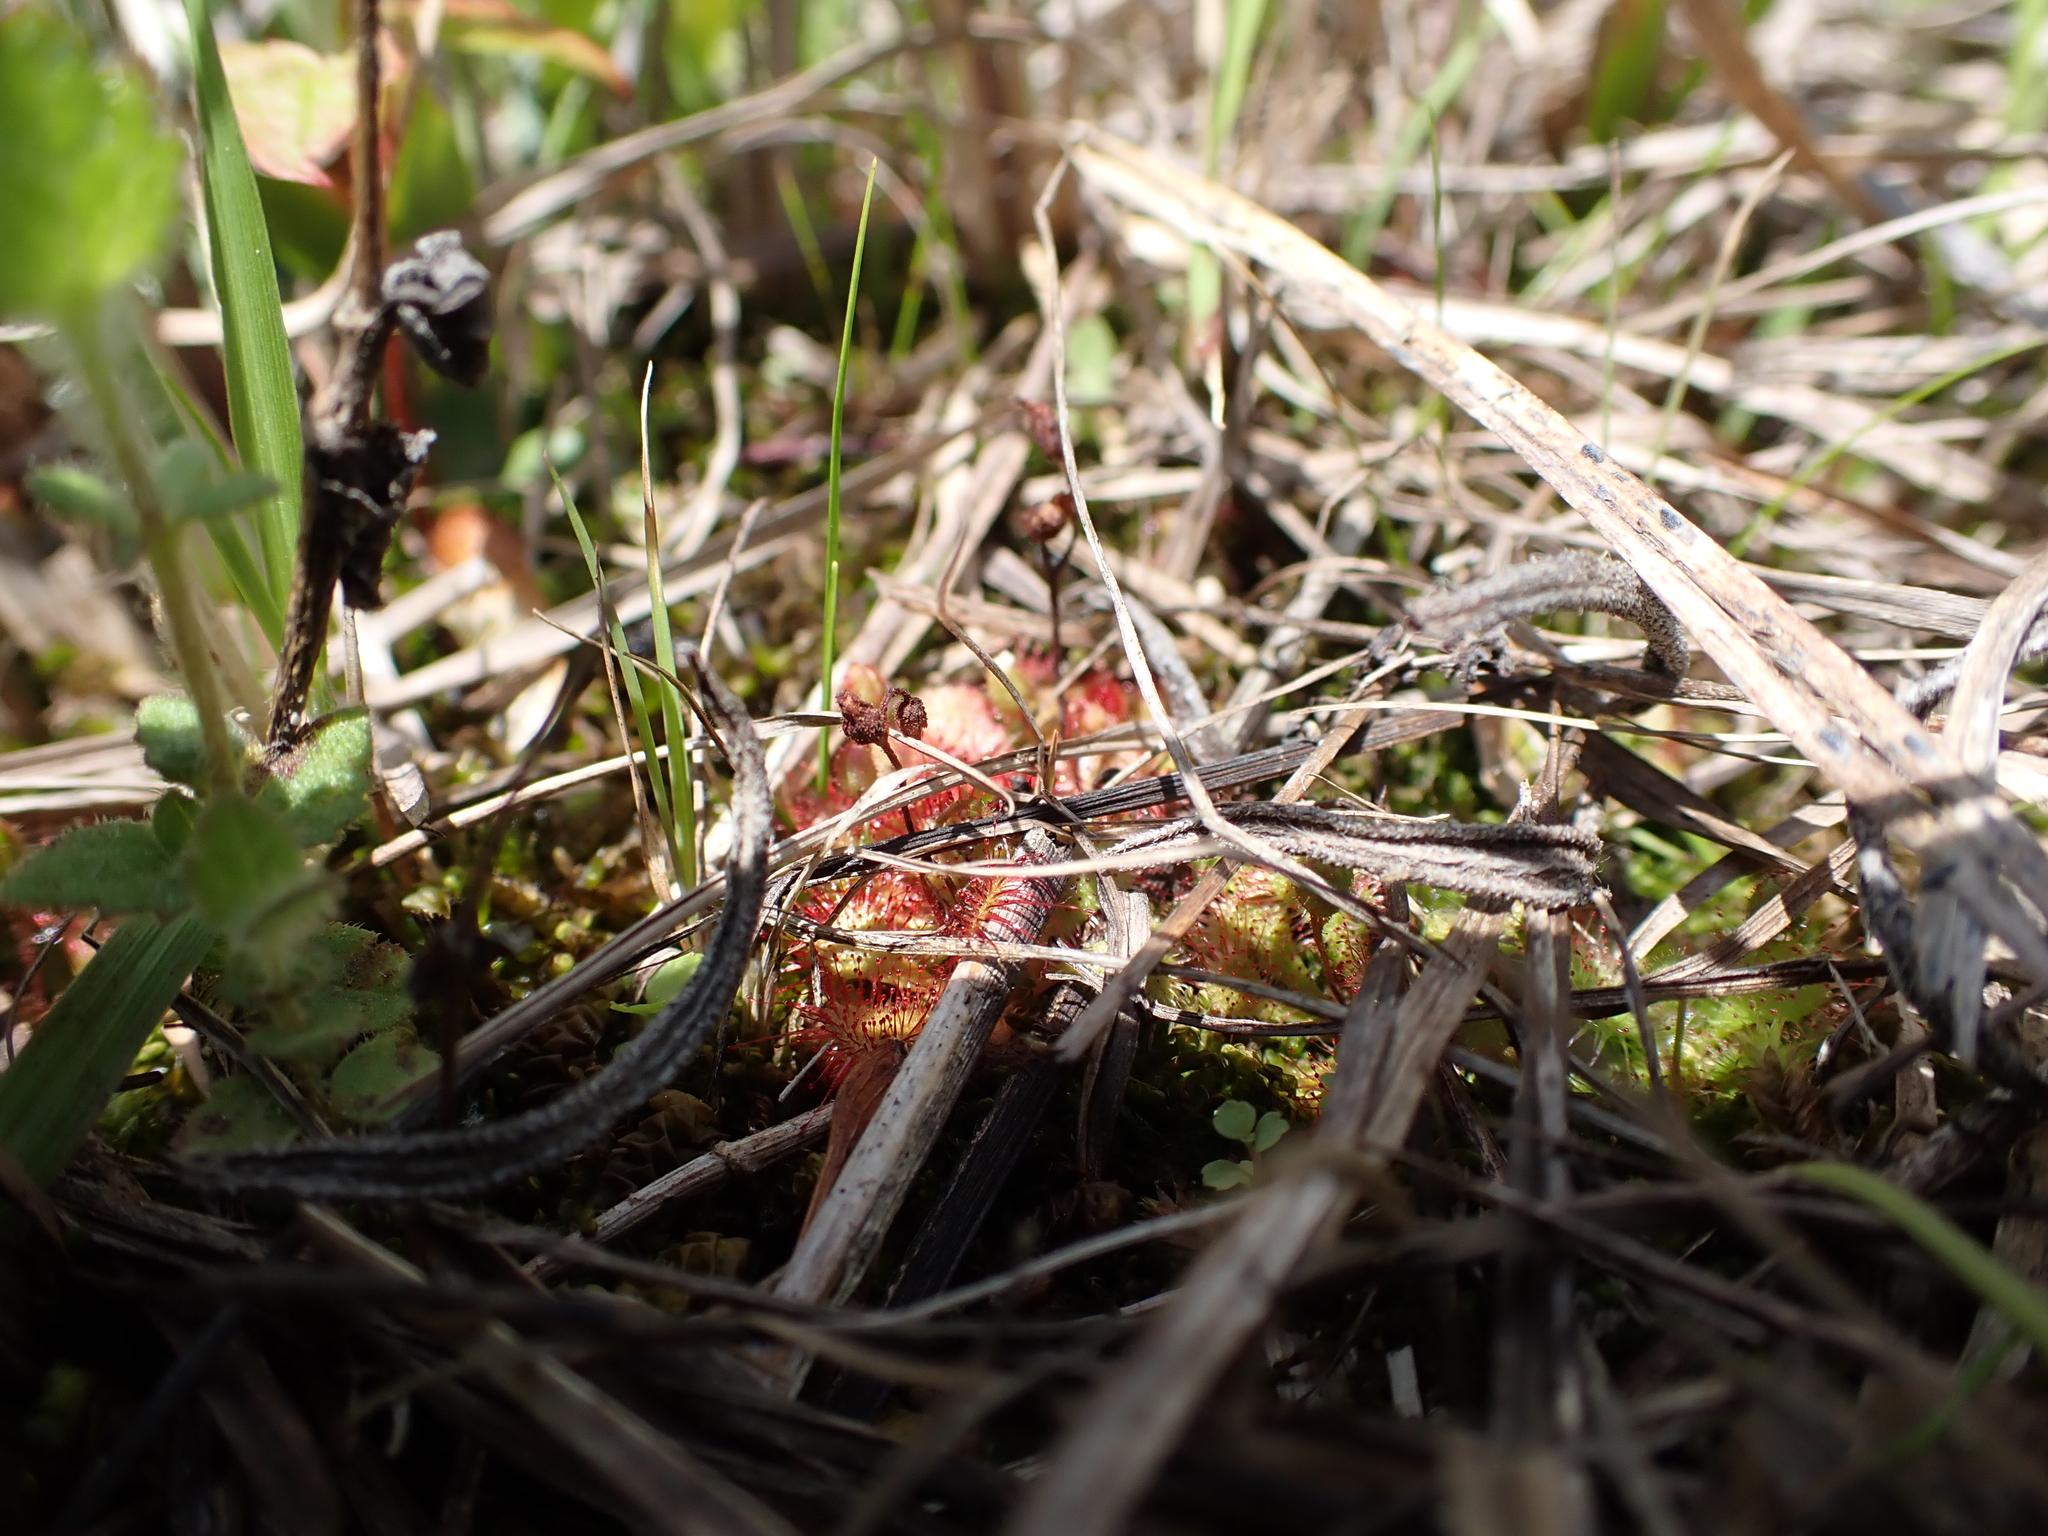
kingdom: Plantae
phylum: Tracheophyta
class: Magnoliopsida
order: Caryophyllales
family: Droseraceae
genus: Drosera
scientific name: Drosera brevifolia
